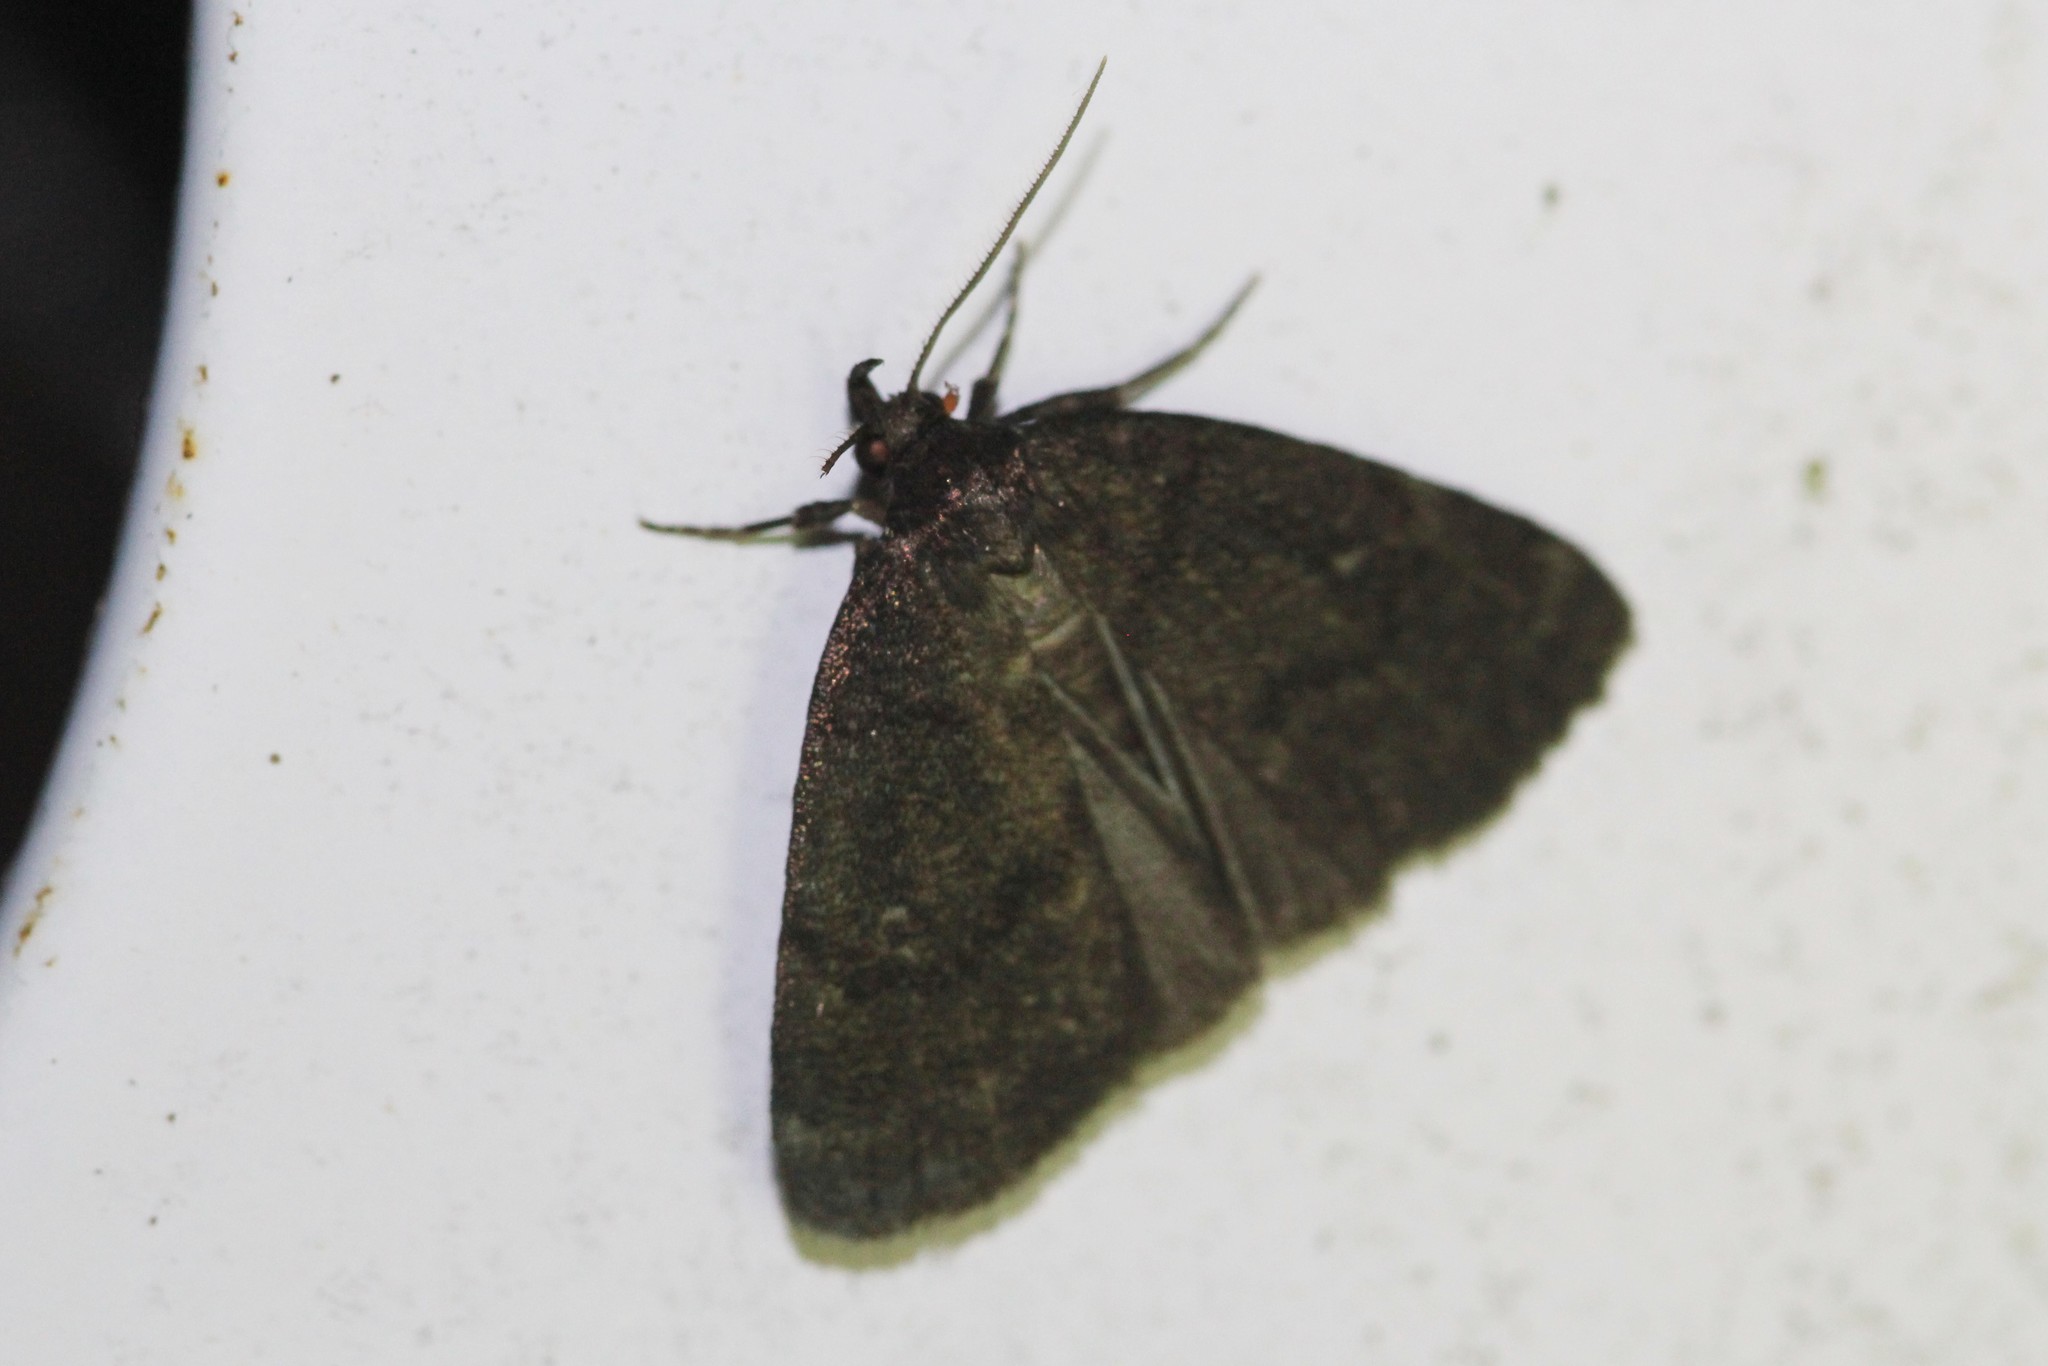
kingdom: Animalia
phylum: Arthropoda
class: Insecta
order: Lepidoptera
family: Erebidae
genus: Idia
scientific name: Idia rotundalis
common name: Rotund idia moth
